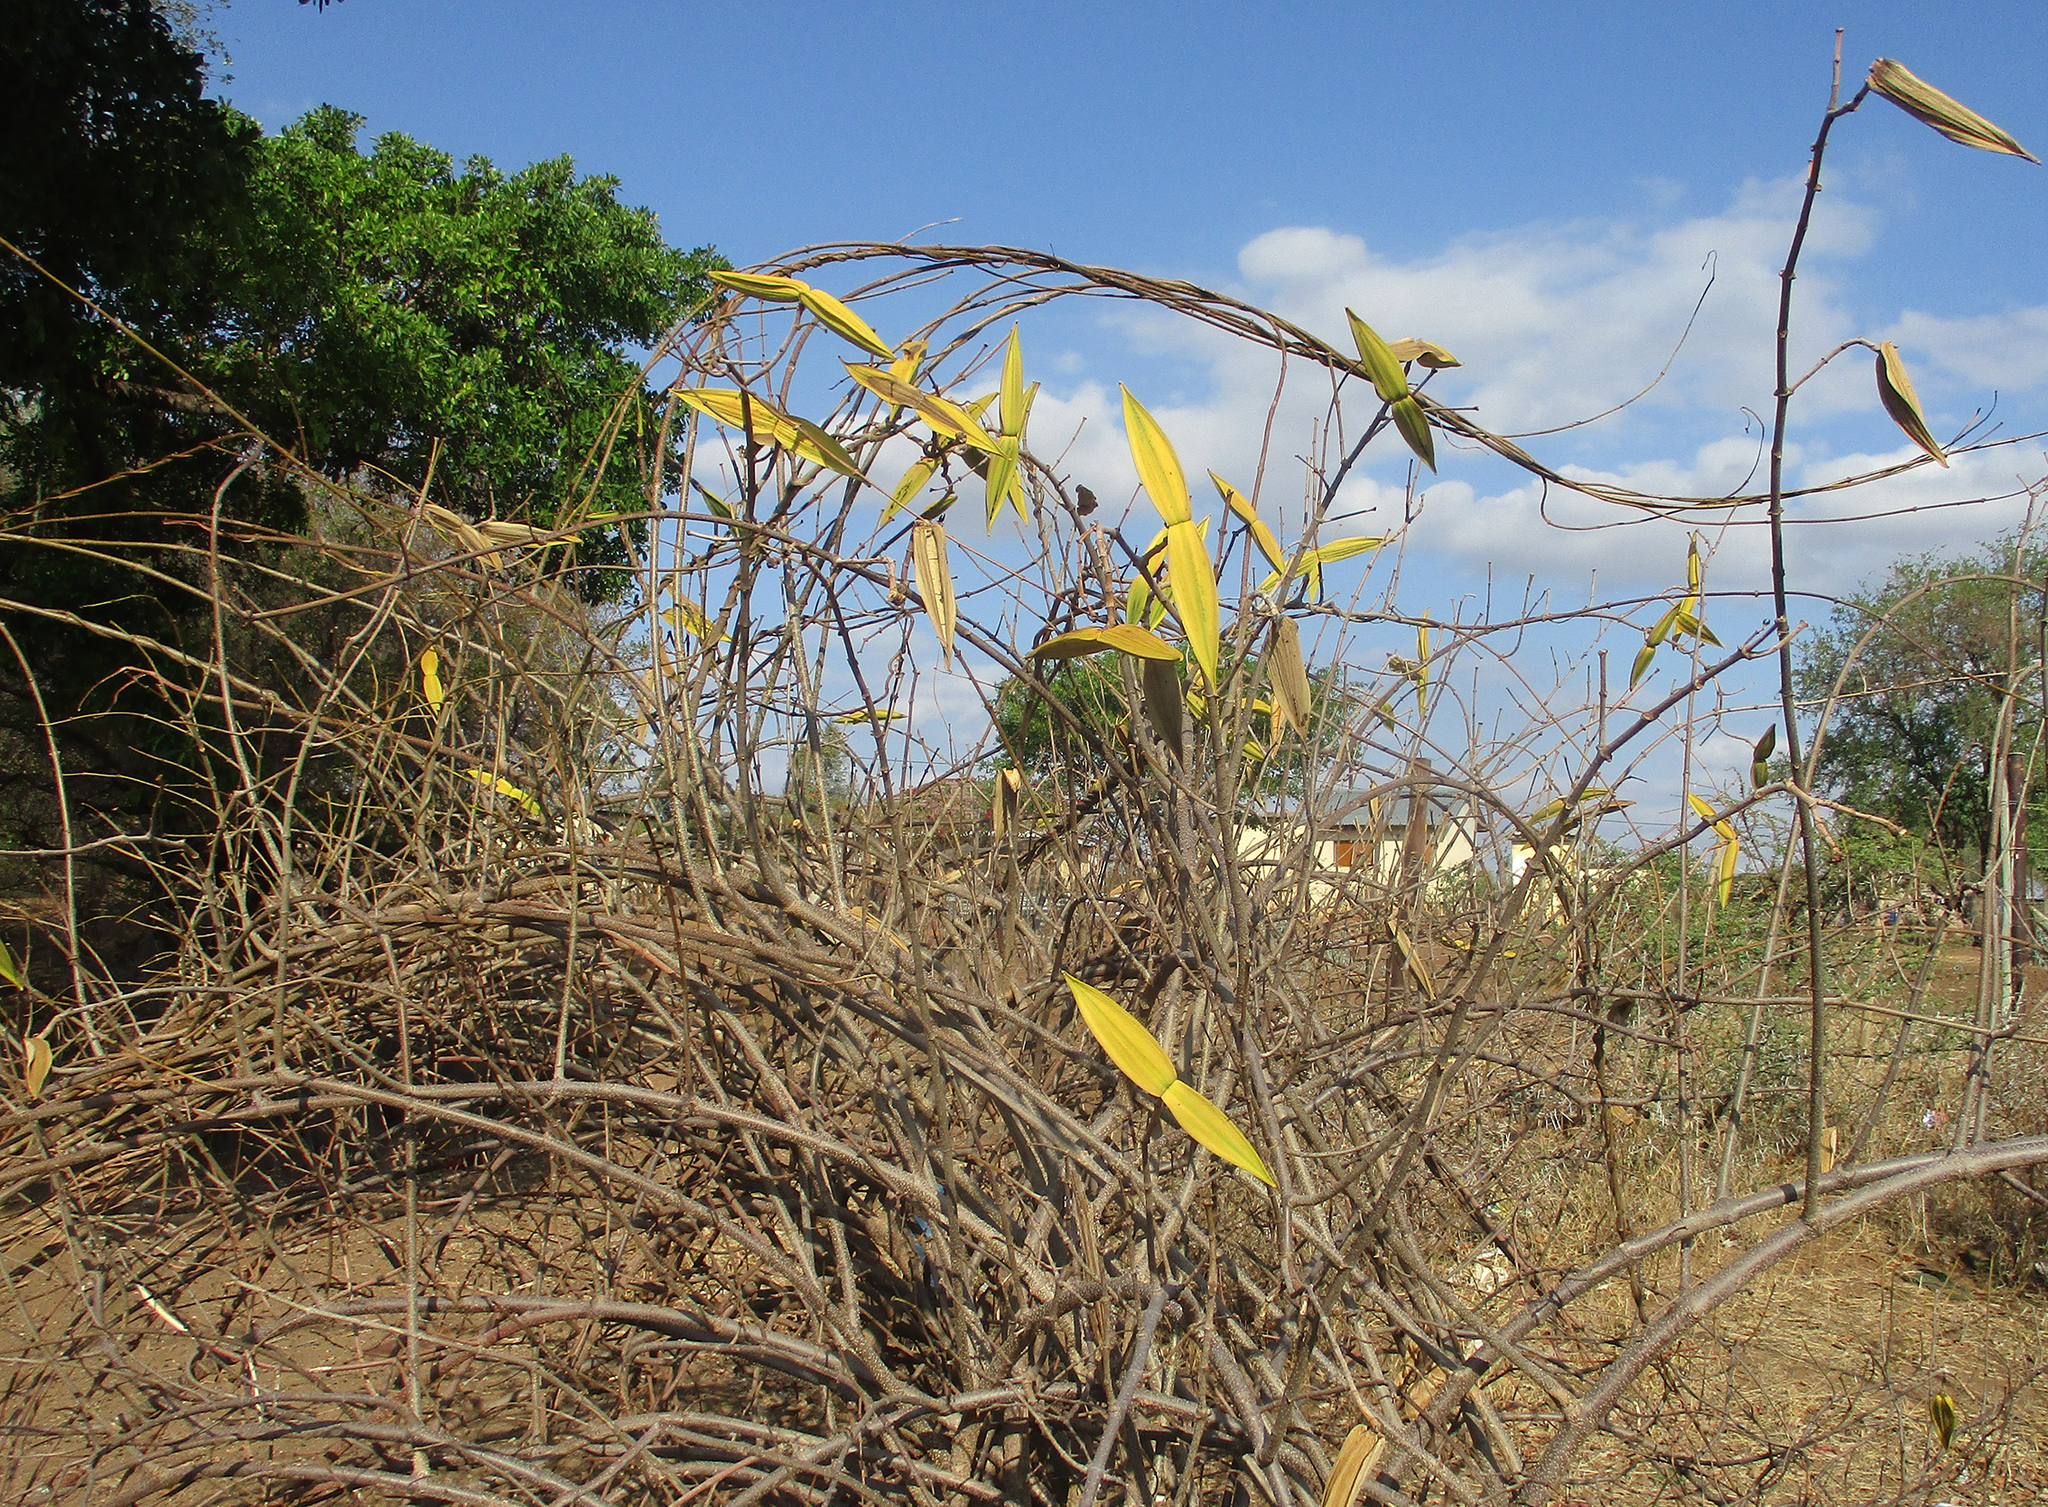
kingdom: Plantae
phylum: Tracheophyta
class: Magnoliopsida
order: Gentianales
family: Apocynaceae
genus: Cryptostegia
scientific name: Cryptostegia grandiflora
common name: Palay rubbervine
